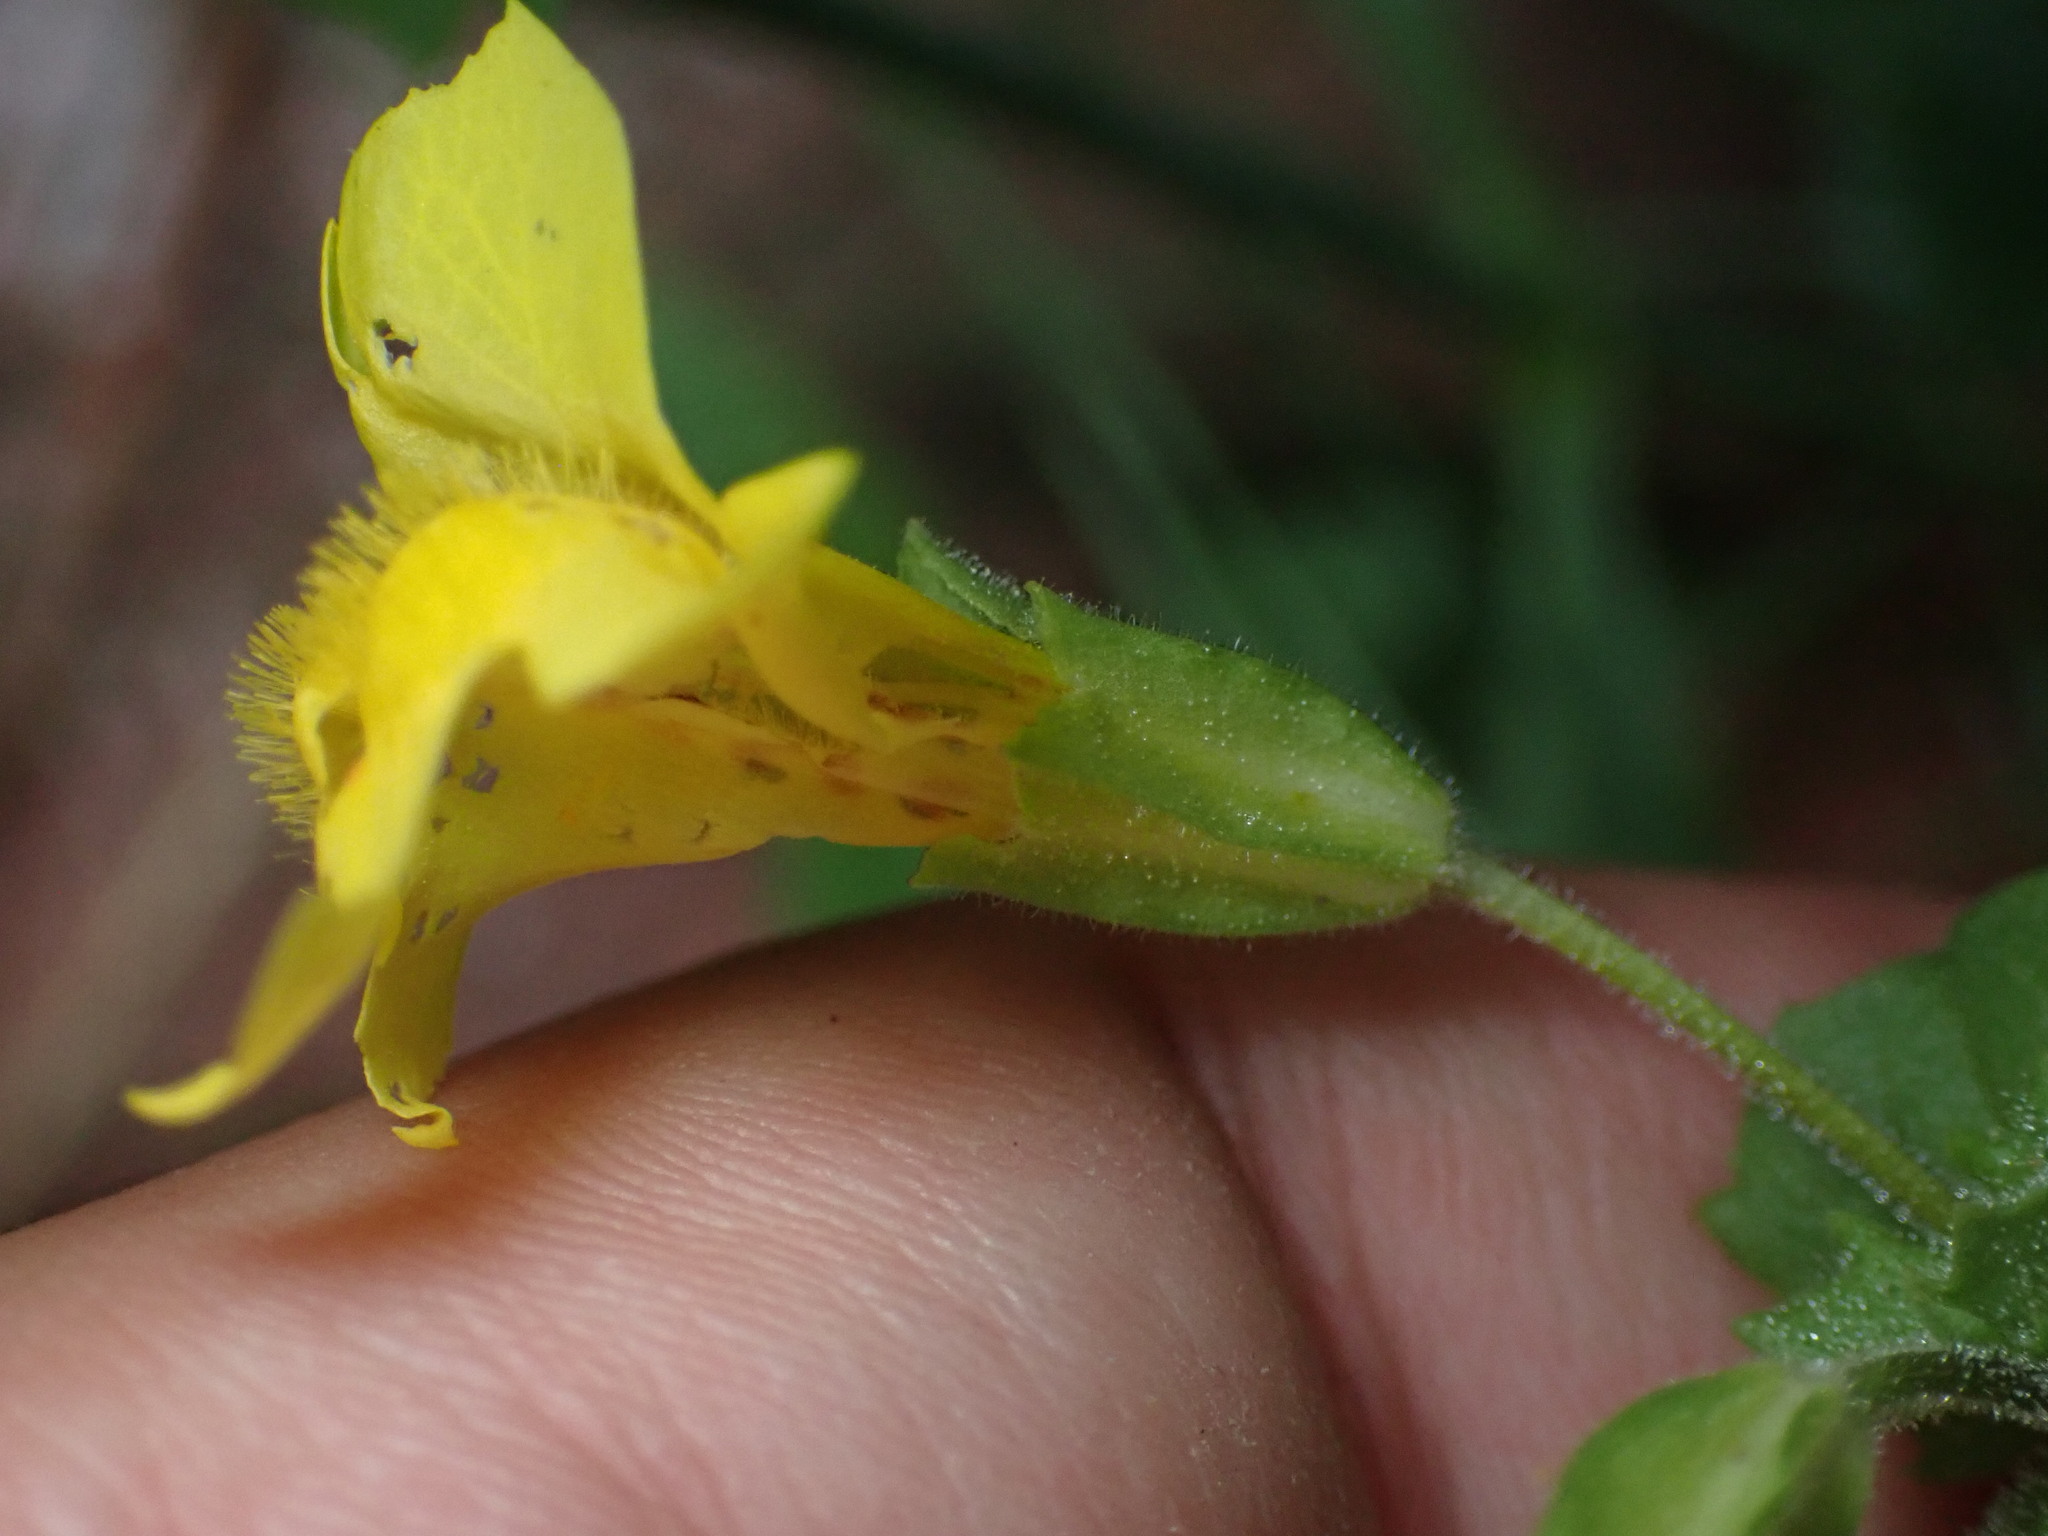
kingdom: Plantae
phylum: Tracheophyta
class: Magnoliopsida
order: Lamiales
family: Phrymaceae
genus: Erythranthe
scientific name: Erythranthe guttata
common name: Monkeyflower
